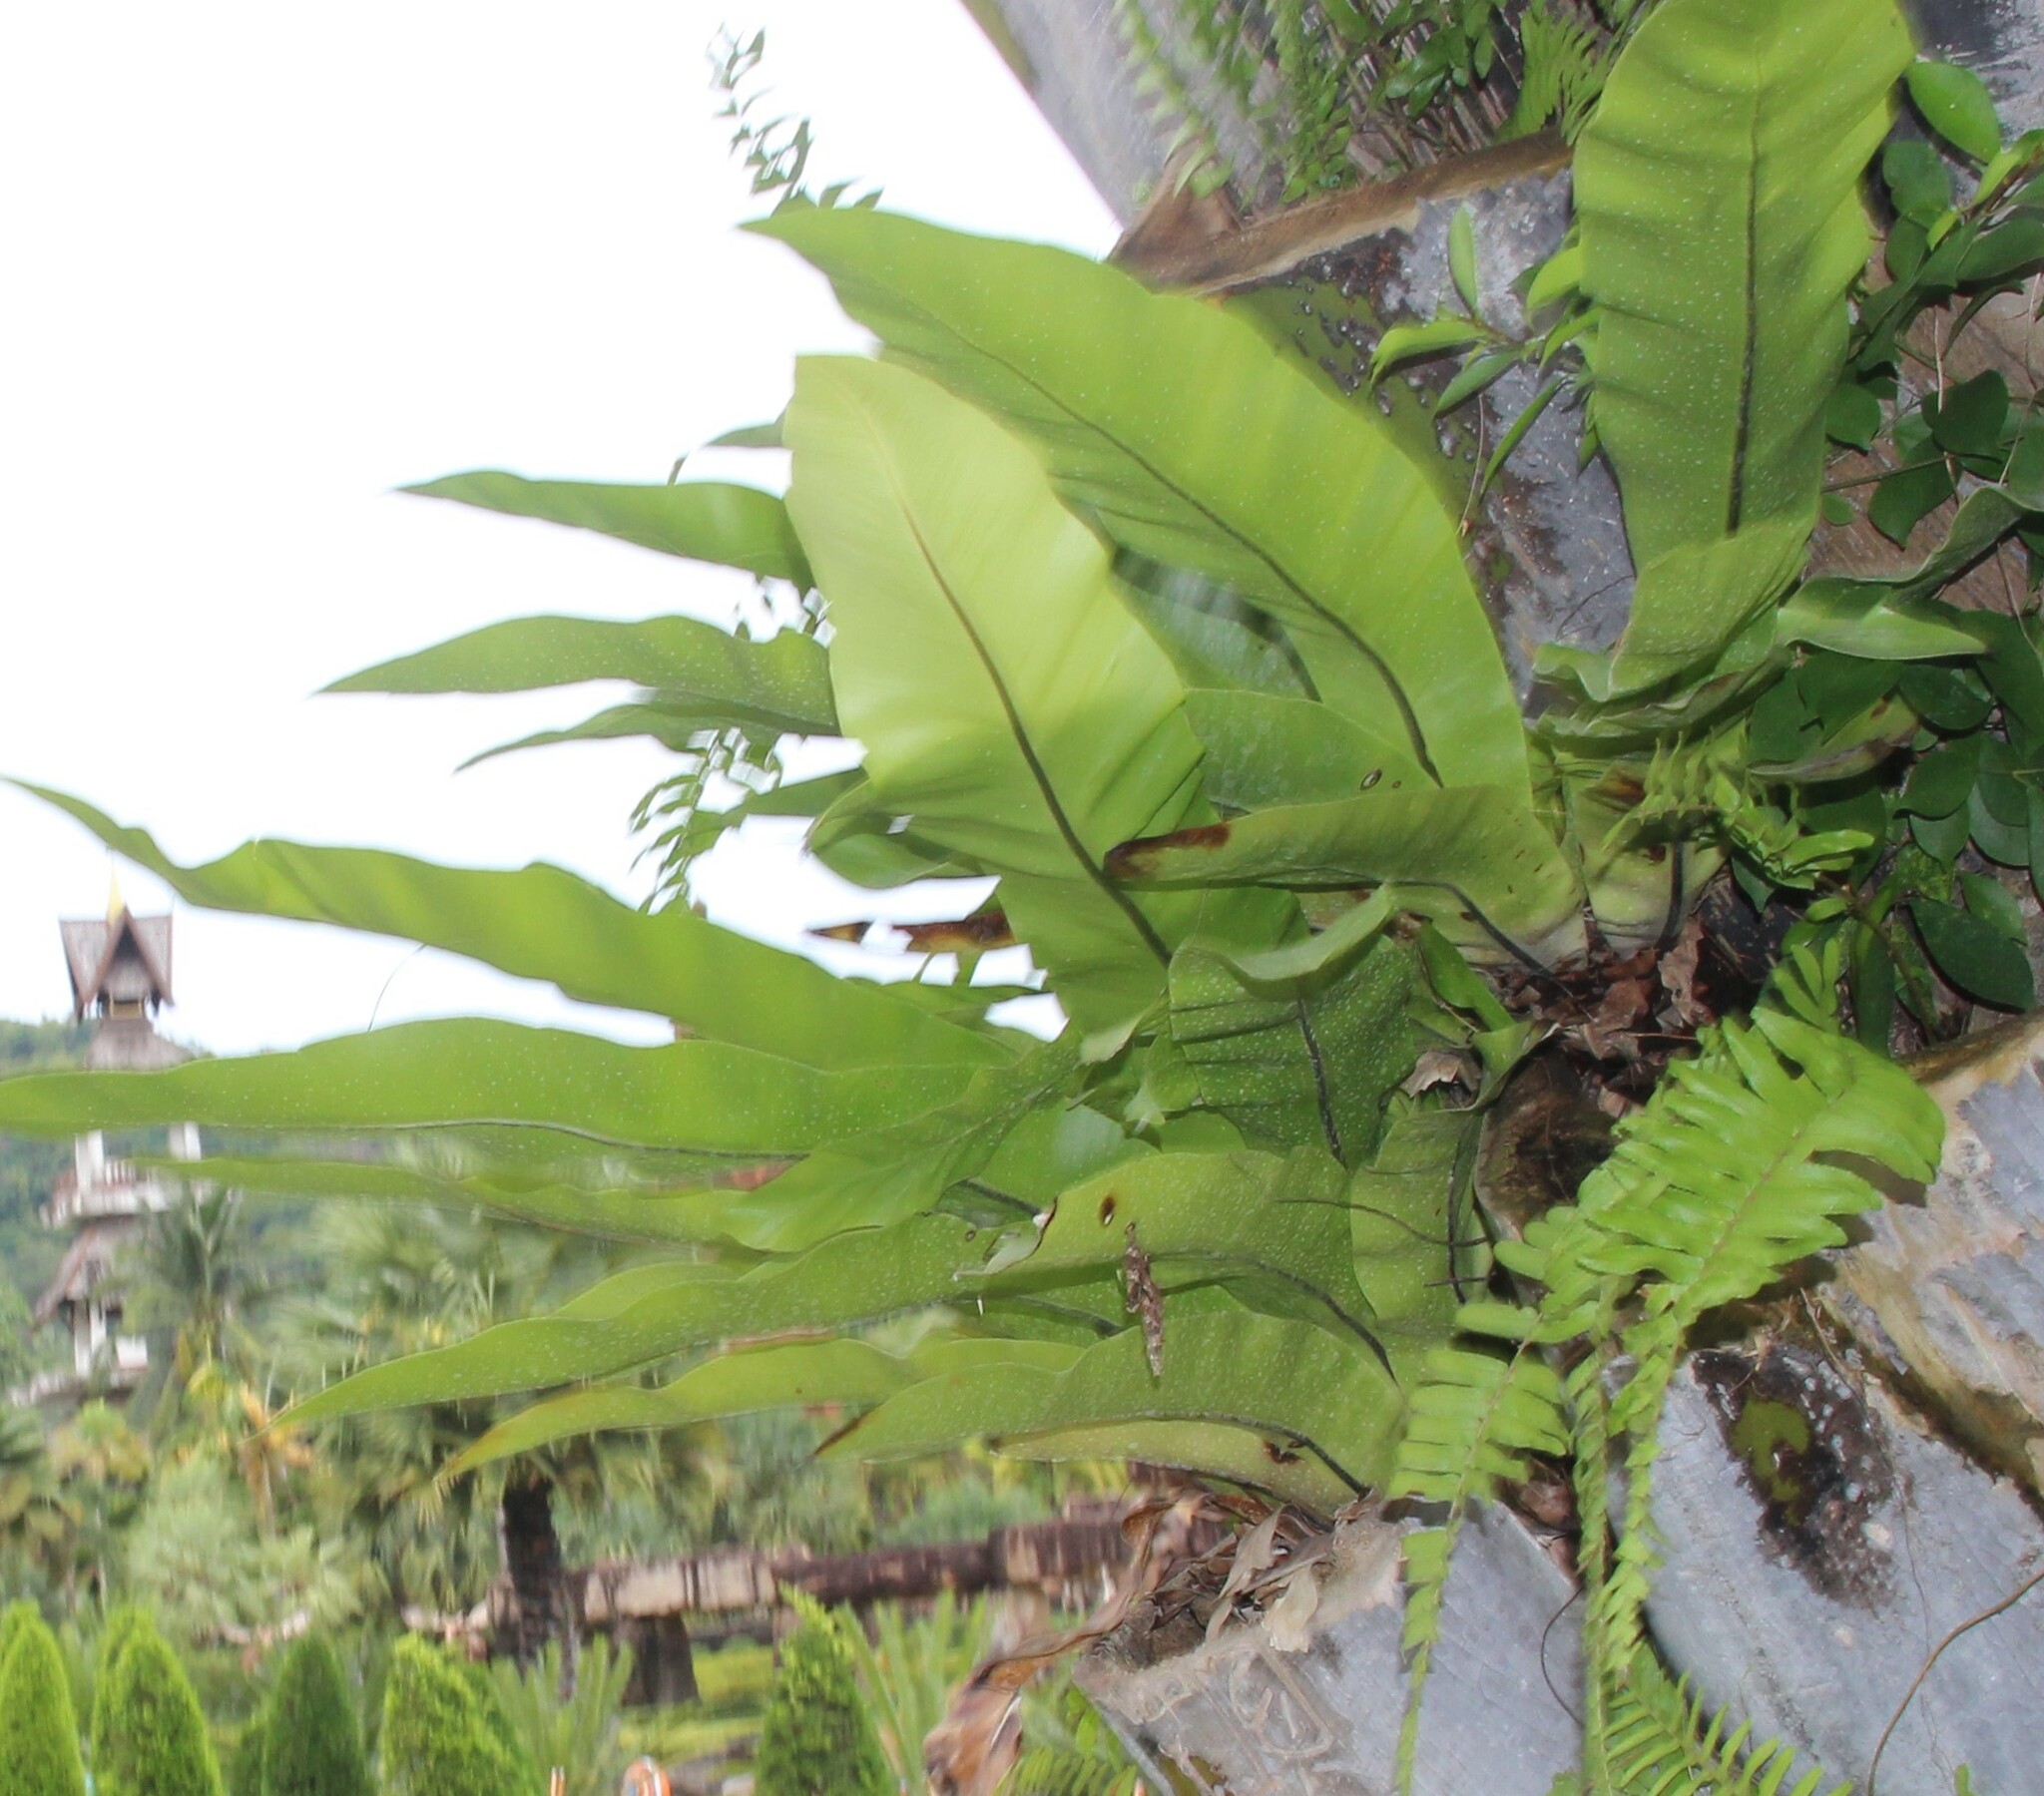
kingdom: Plantae
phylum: Tracheophyta
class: Polypodiopsida
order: Polypodiales
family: Aspleniaceae
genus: Asplenium
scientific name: Asplenium nidus
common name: Bird's-nest fern
